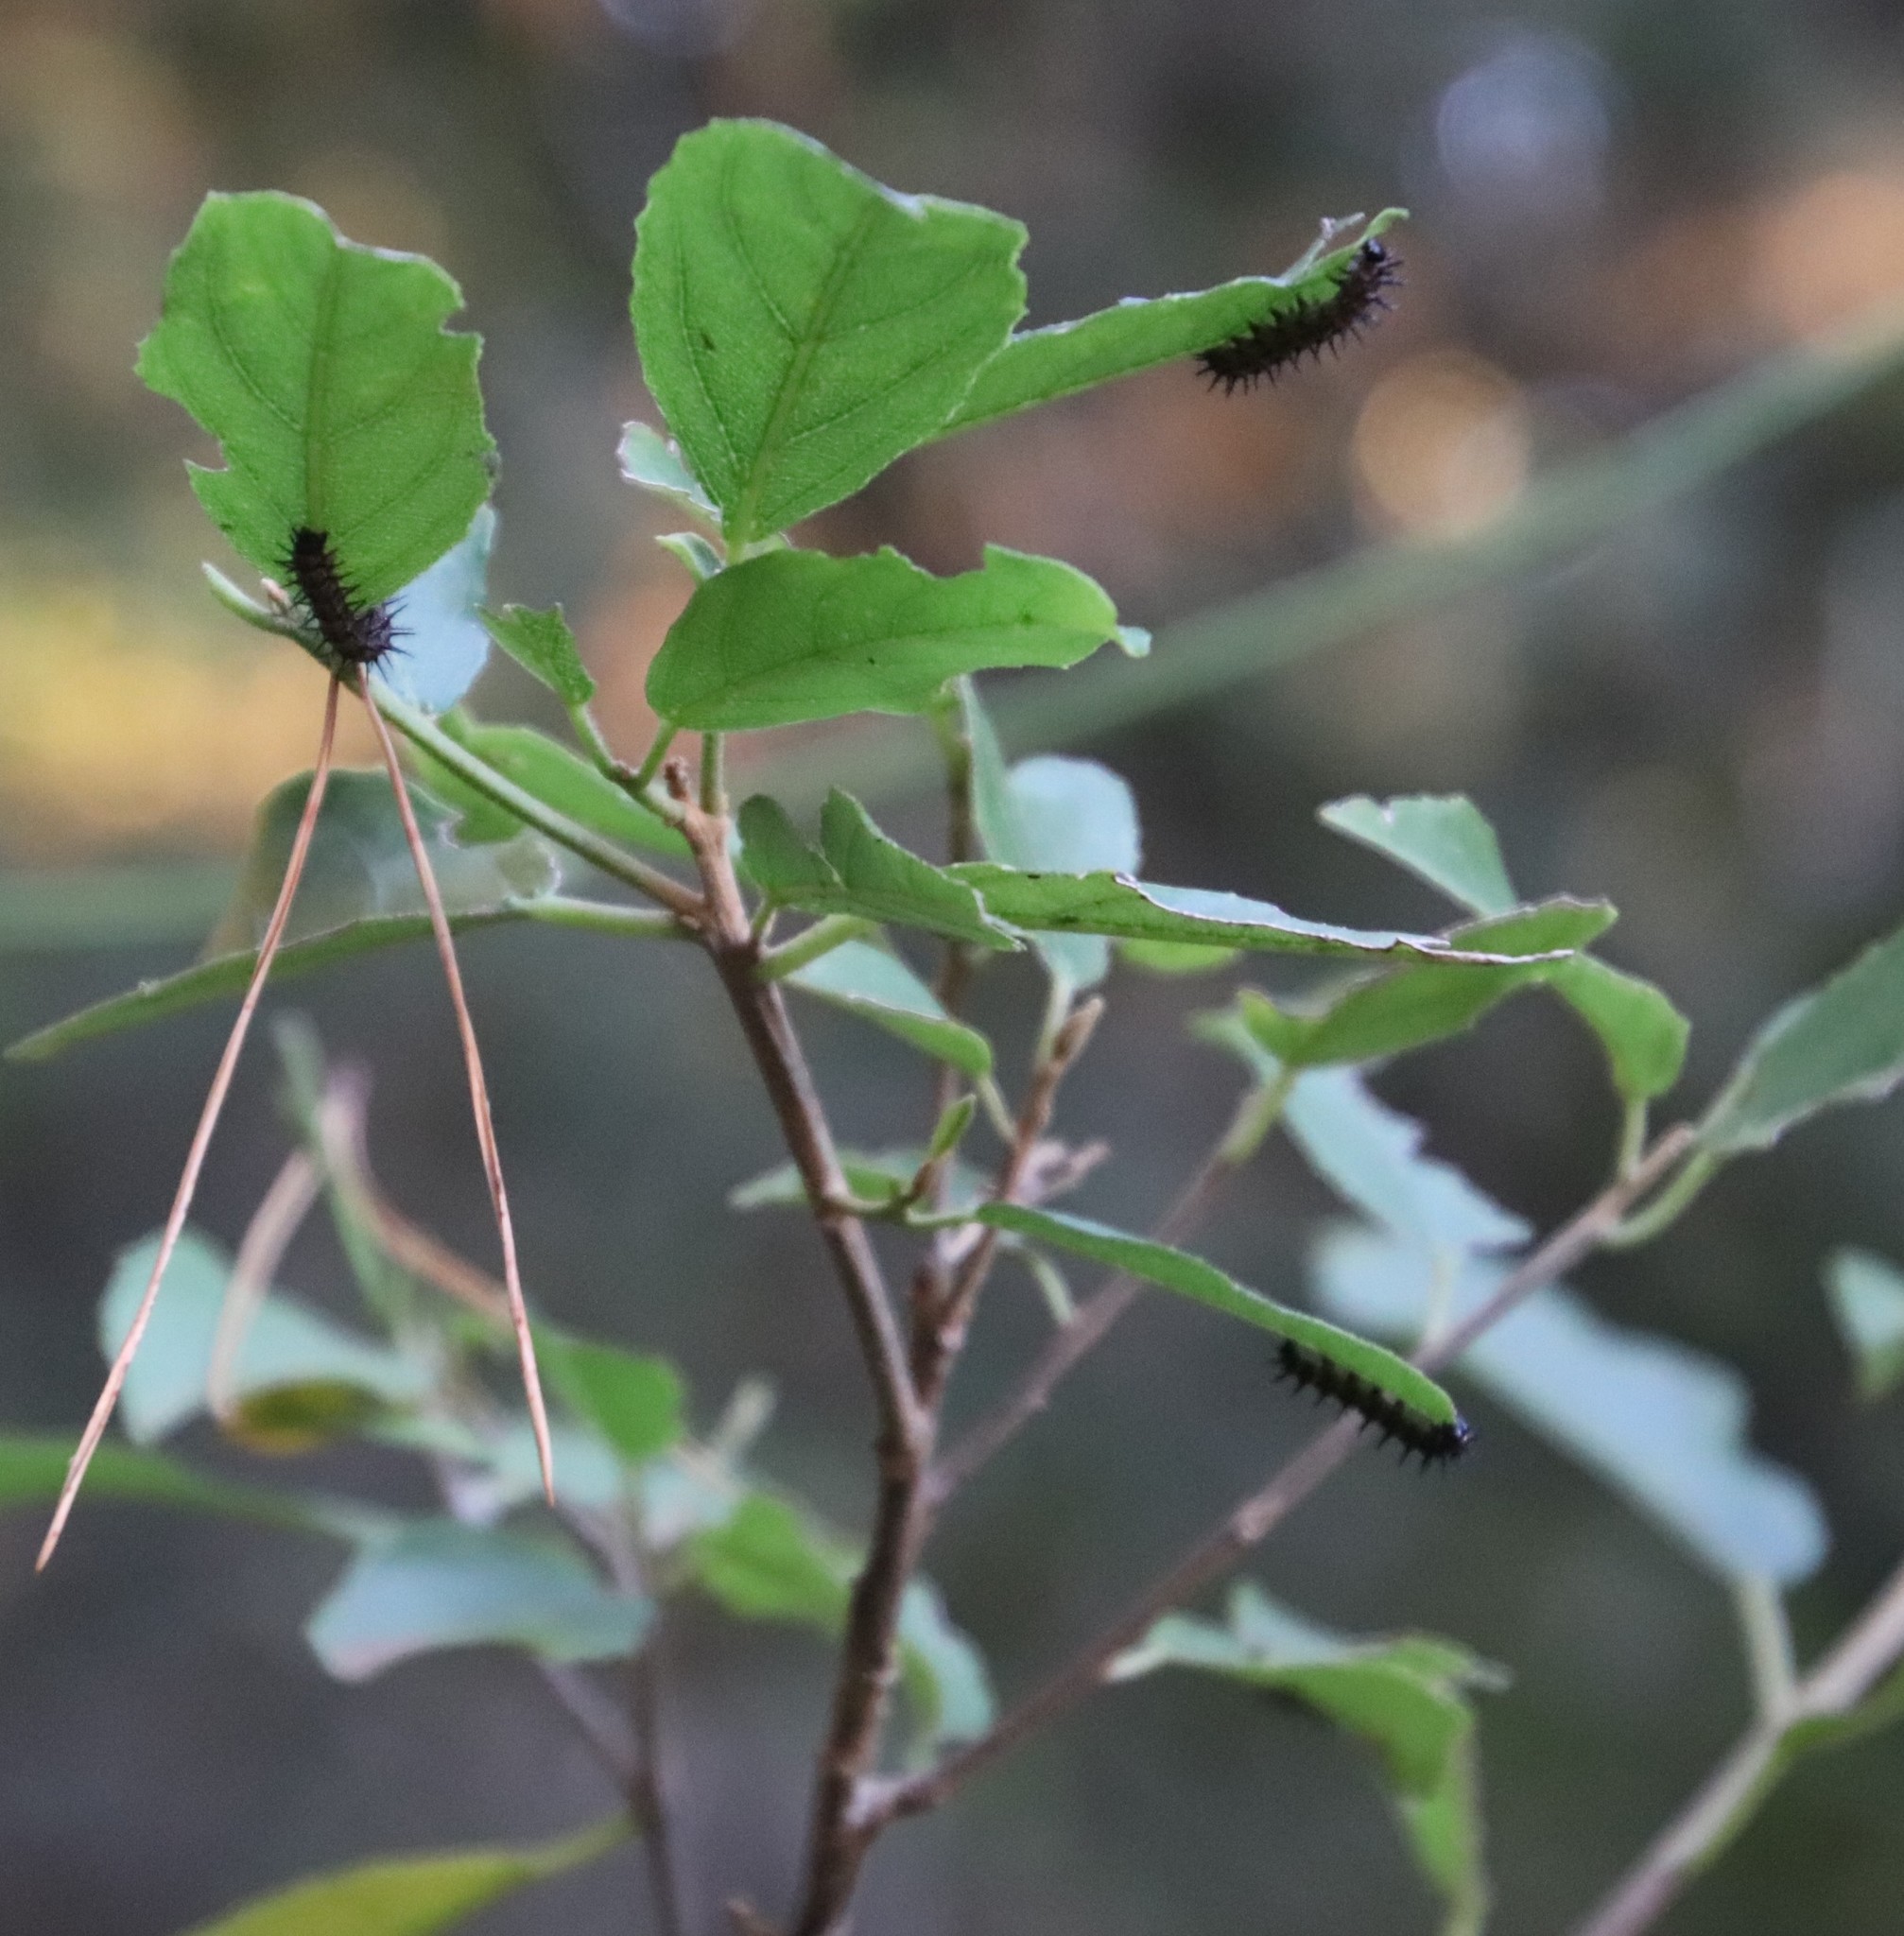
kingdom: Plantae
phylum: Tracheophyta
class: Magnoliopsida
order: Malpighiales
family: Achariaceae
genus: Kiggelaria
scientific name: Kiggelaria africana
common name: Wild peach
